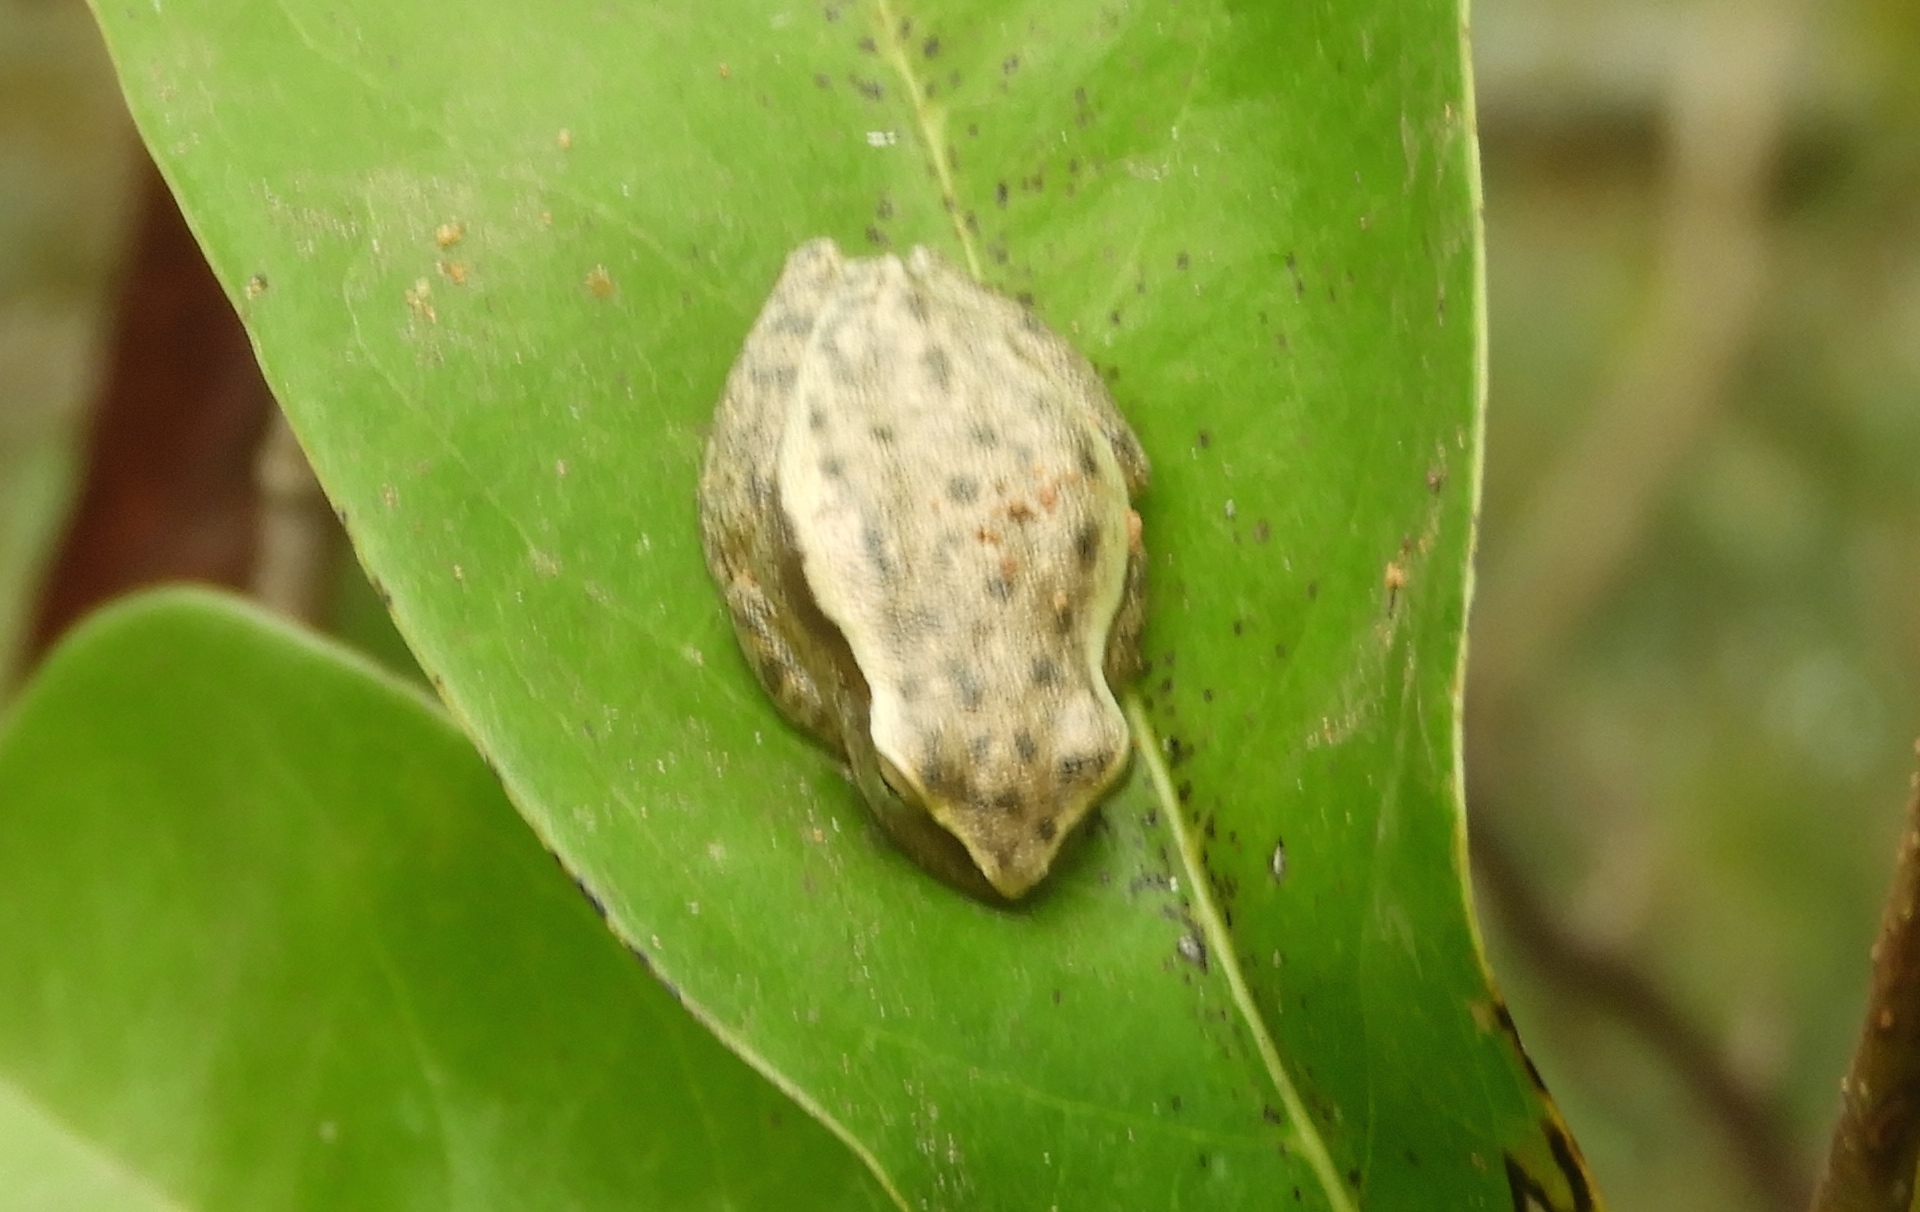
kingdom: Animalia
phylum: Chordata
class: Amphibia
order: Anura
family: Hylidae
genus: Tlalocohyla
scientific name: Tlalocohyla smithii
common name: Dwarf mexican treefrog
